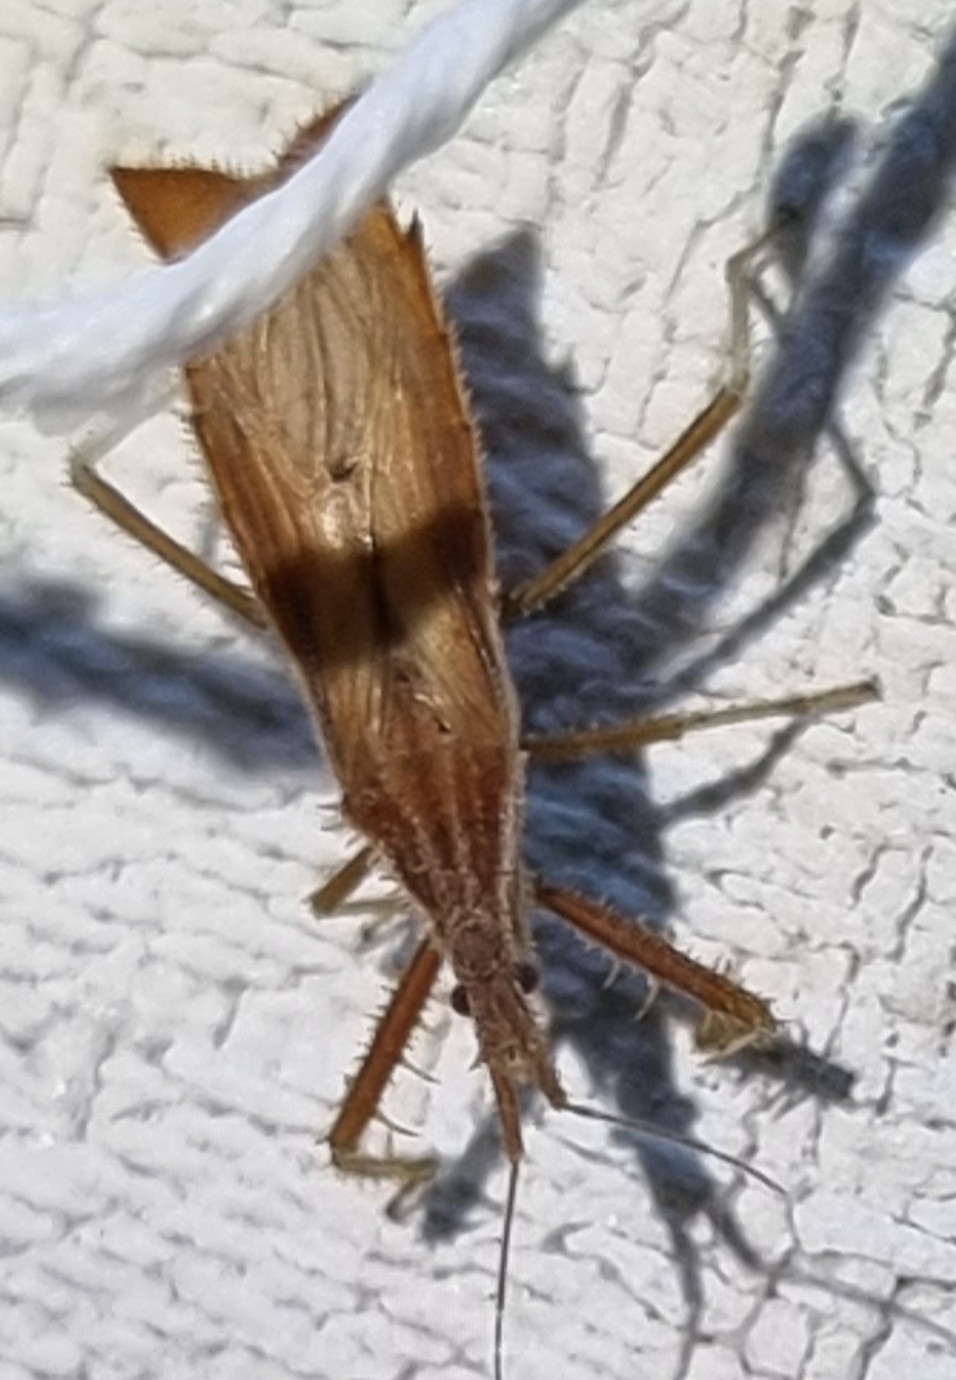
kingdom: Animalia
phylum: Arthropoda
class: Insecta
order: Hemiptera
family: Reduviidae
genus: Polycentrocoris
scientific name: Polycentrocoris turneri
